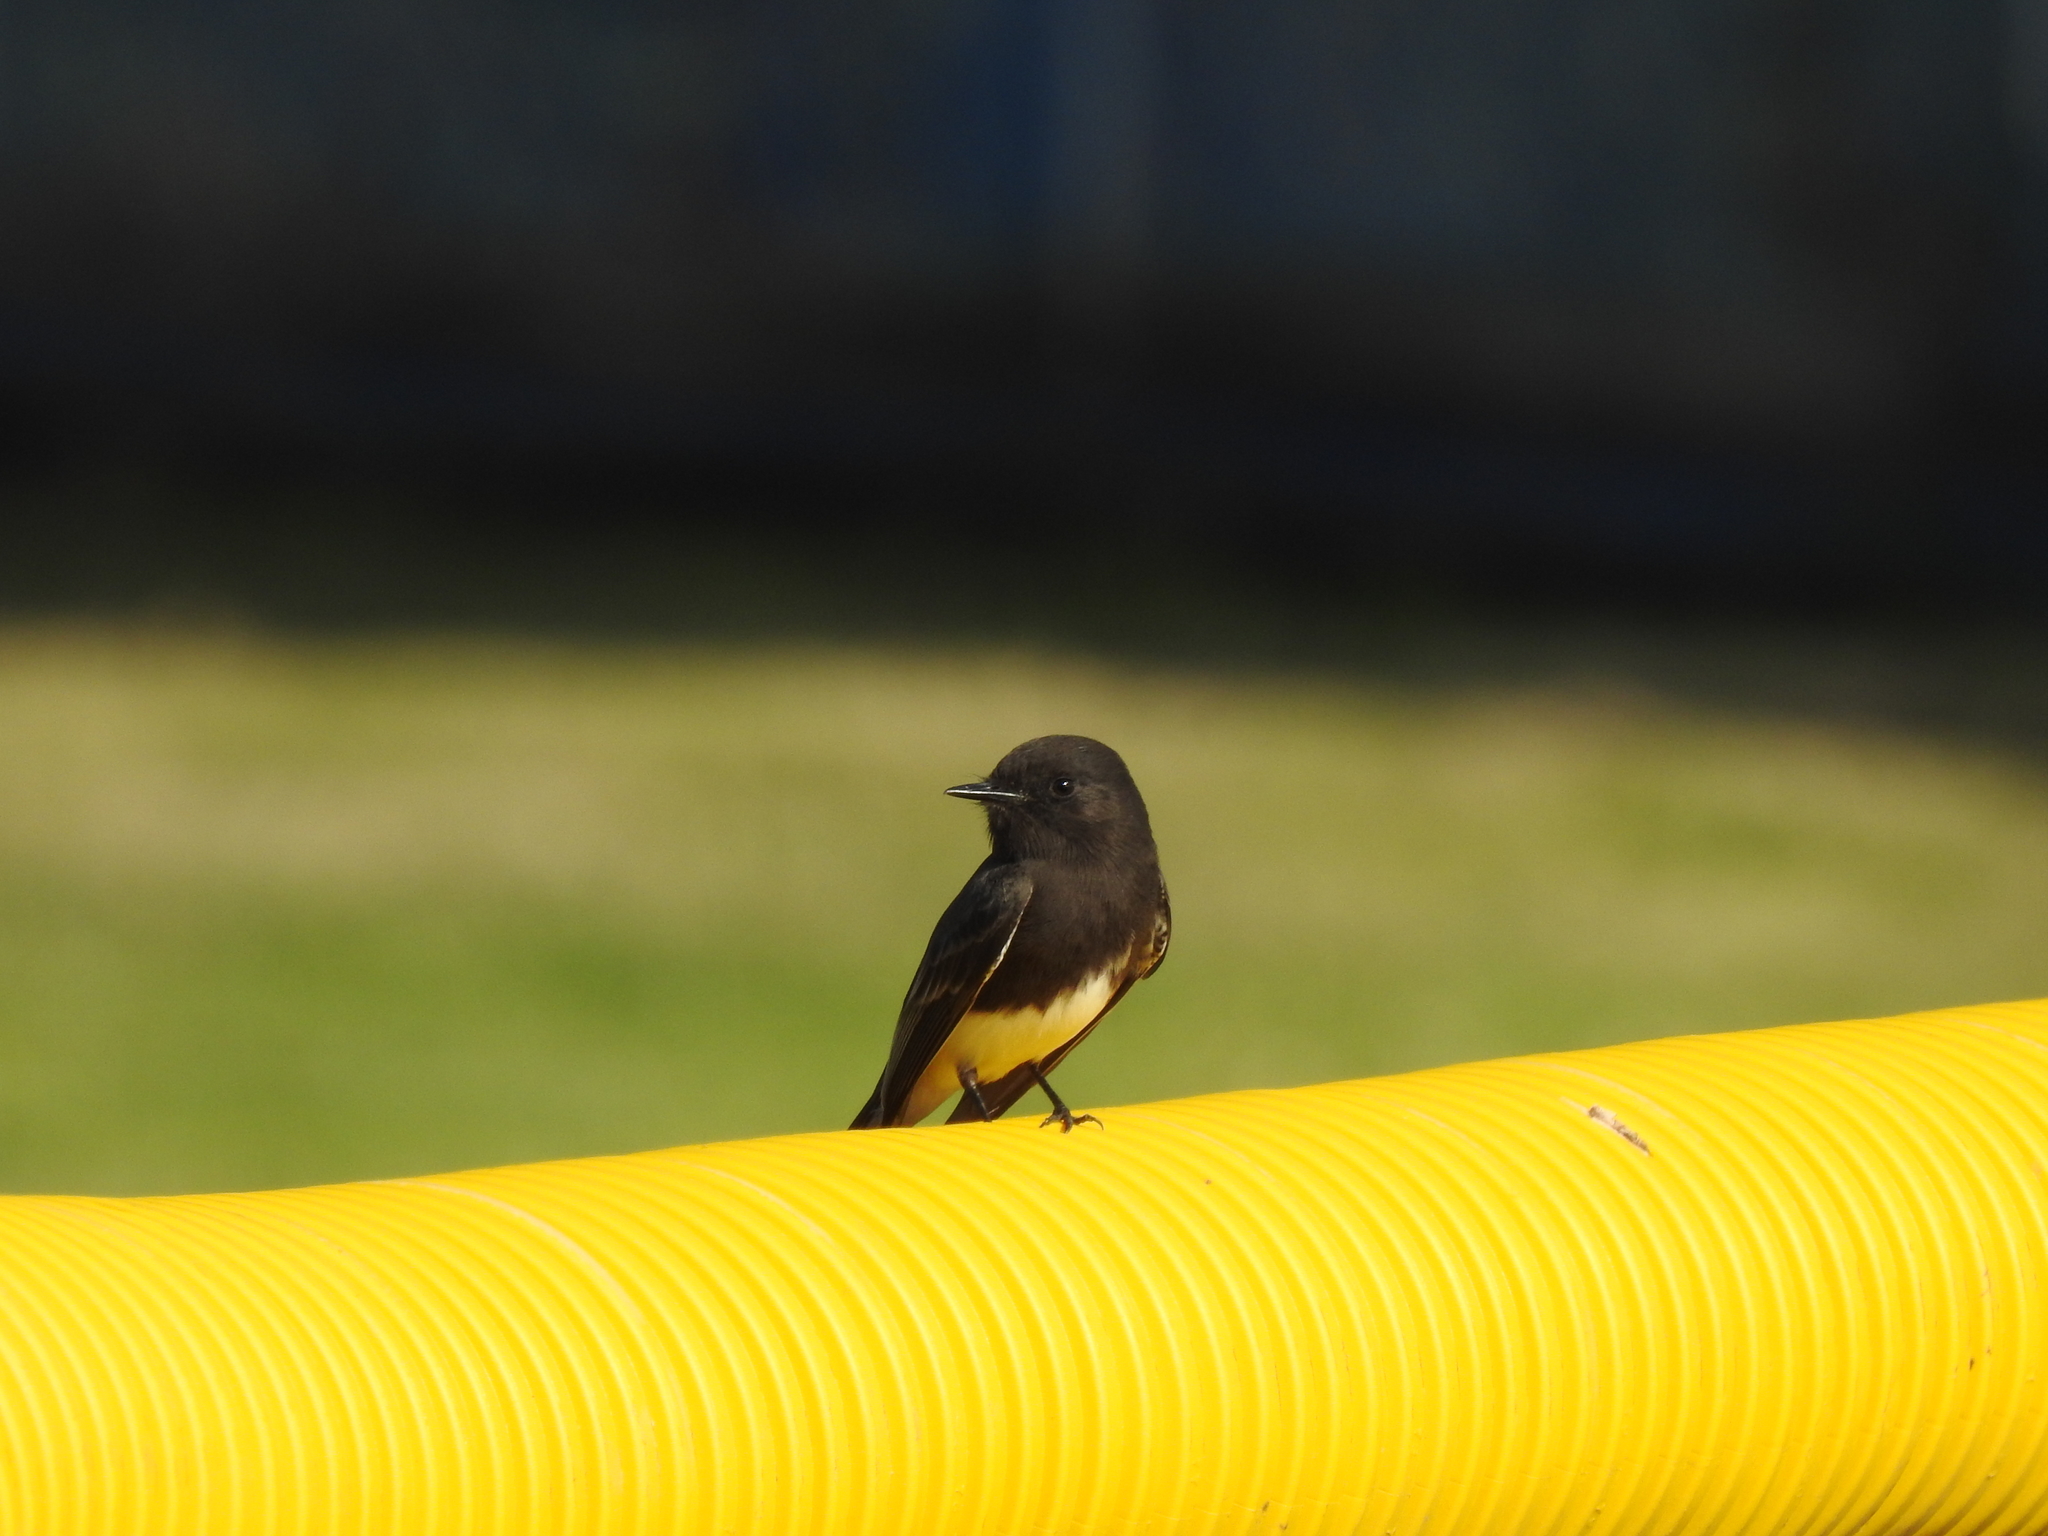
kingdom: Animalia
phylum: Chordata
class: Aves
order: Passeriformes
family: Tyrannidae
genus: Sayornis
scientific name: Sayornis nigricans
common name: Black phoebe
